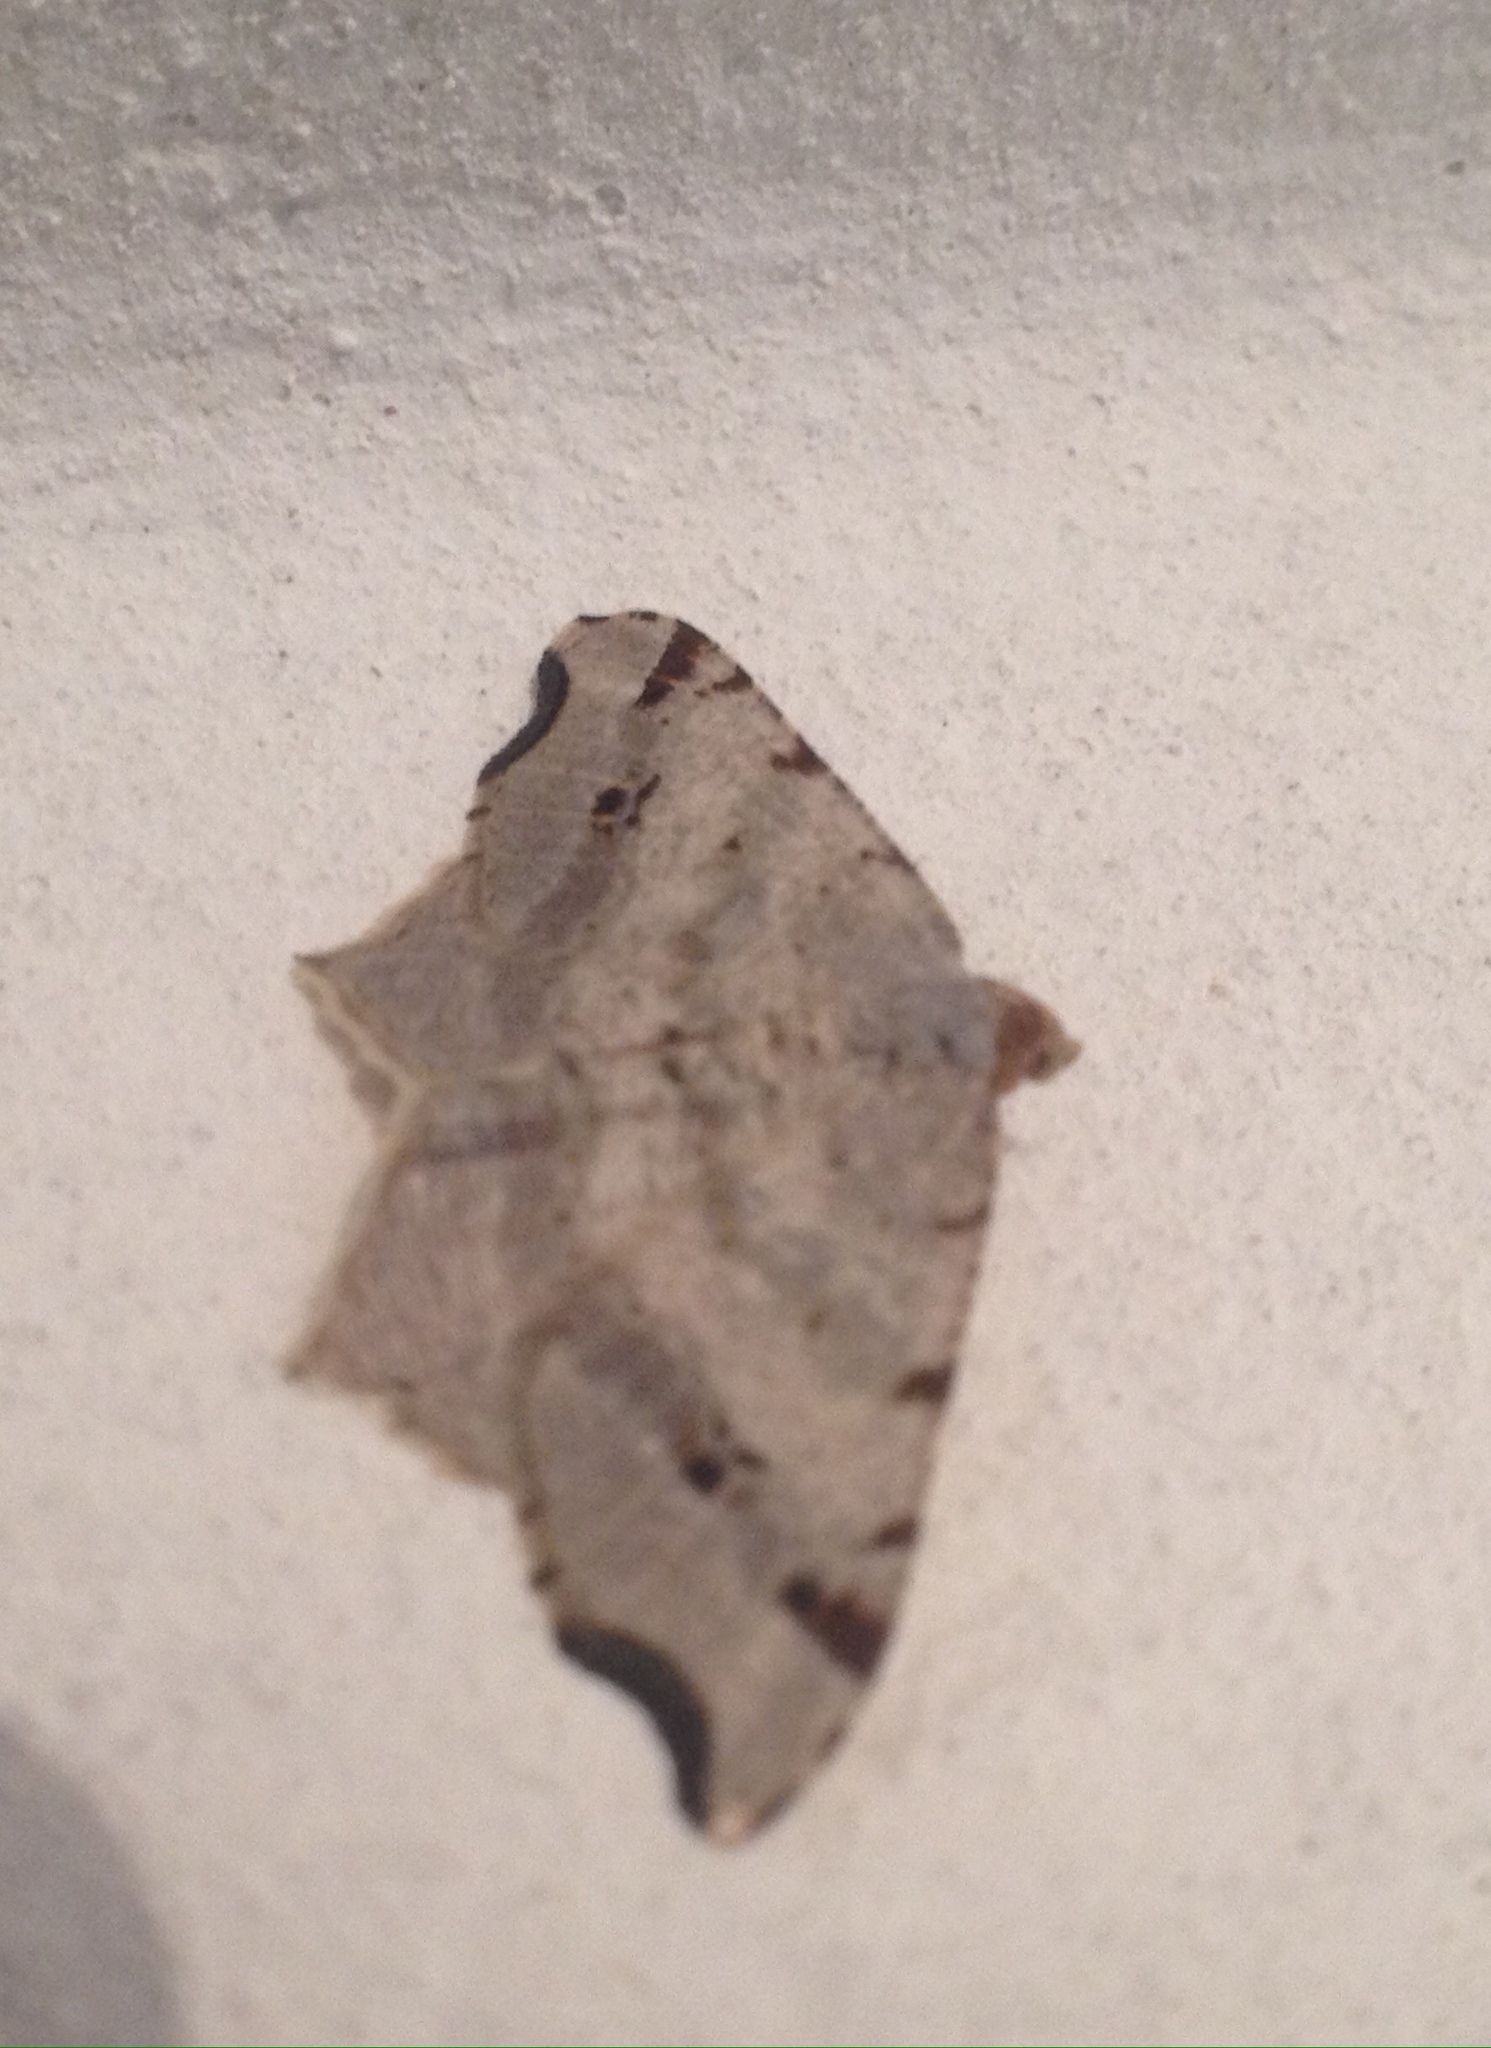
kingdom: Animalia
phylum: Arthropoda
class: Insecta
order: Lepidoptera
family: Geometridae
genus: Macaria
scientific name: Macaria alternata
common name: Sharp-angled peacock
